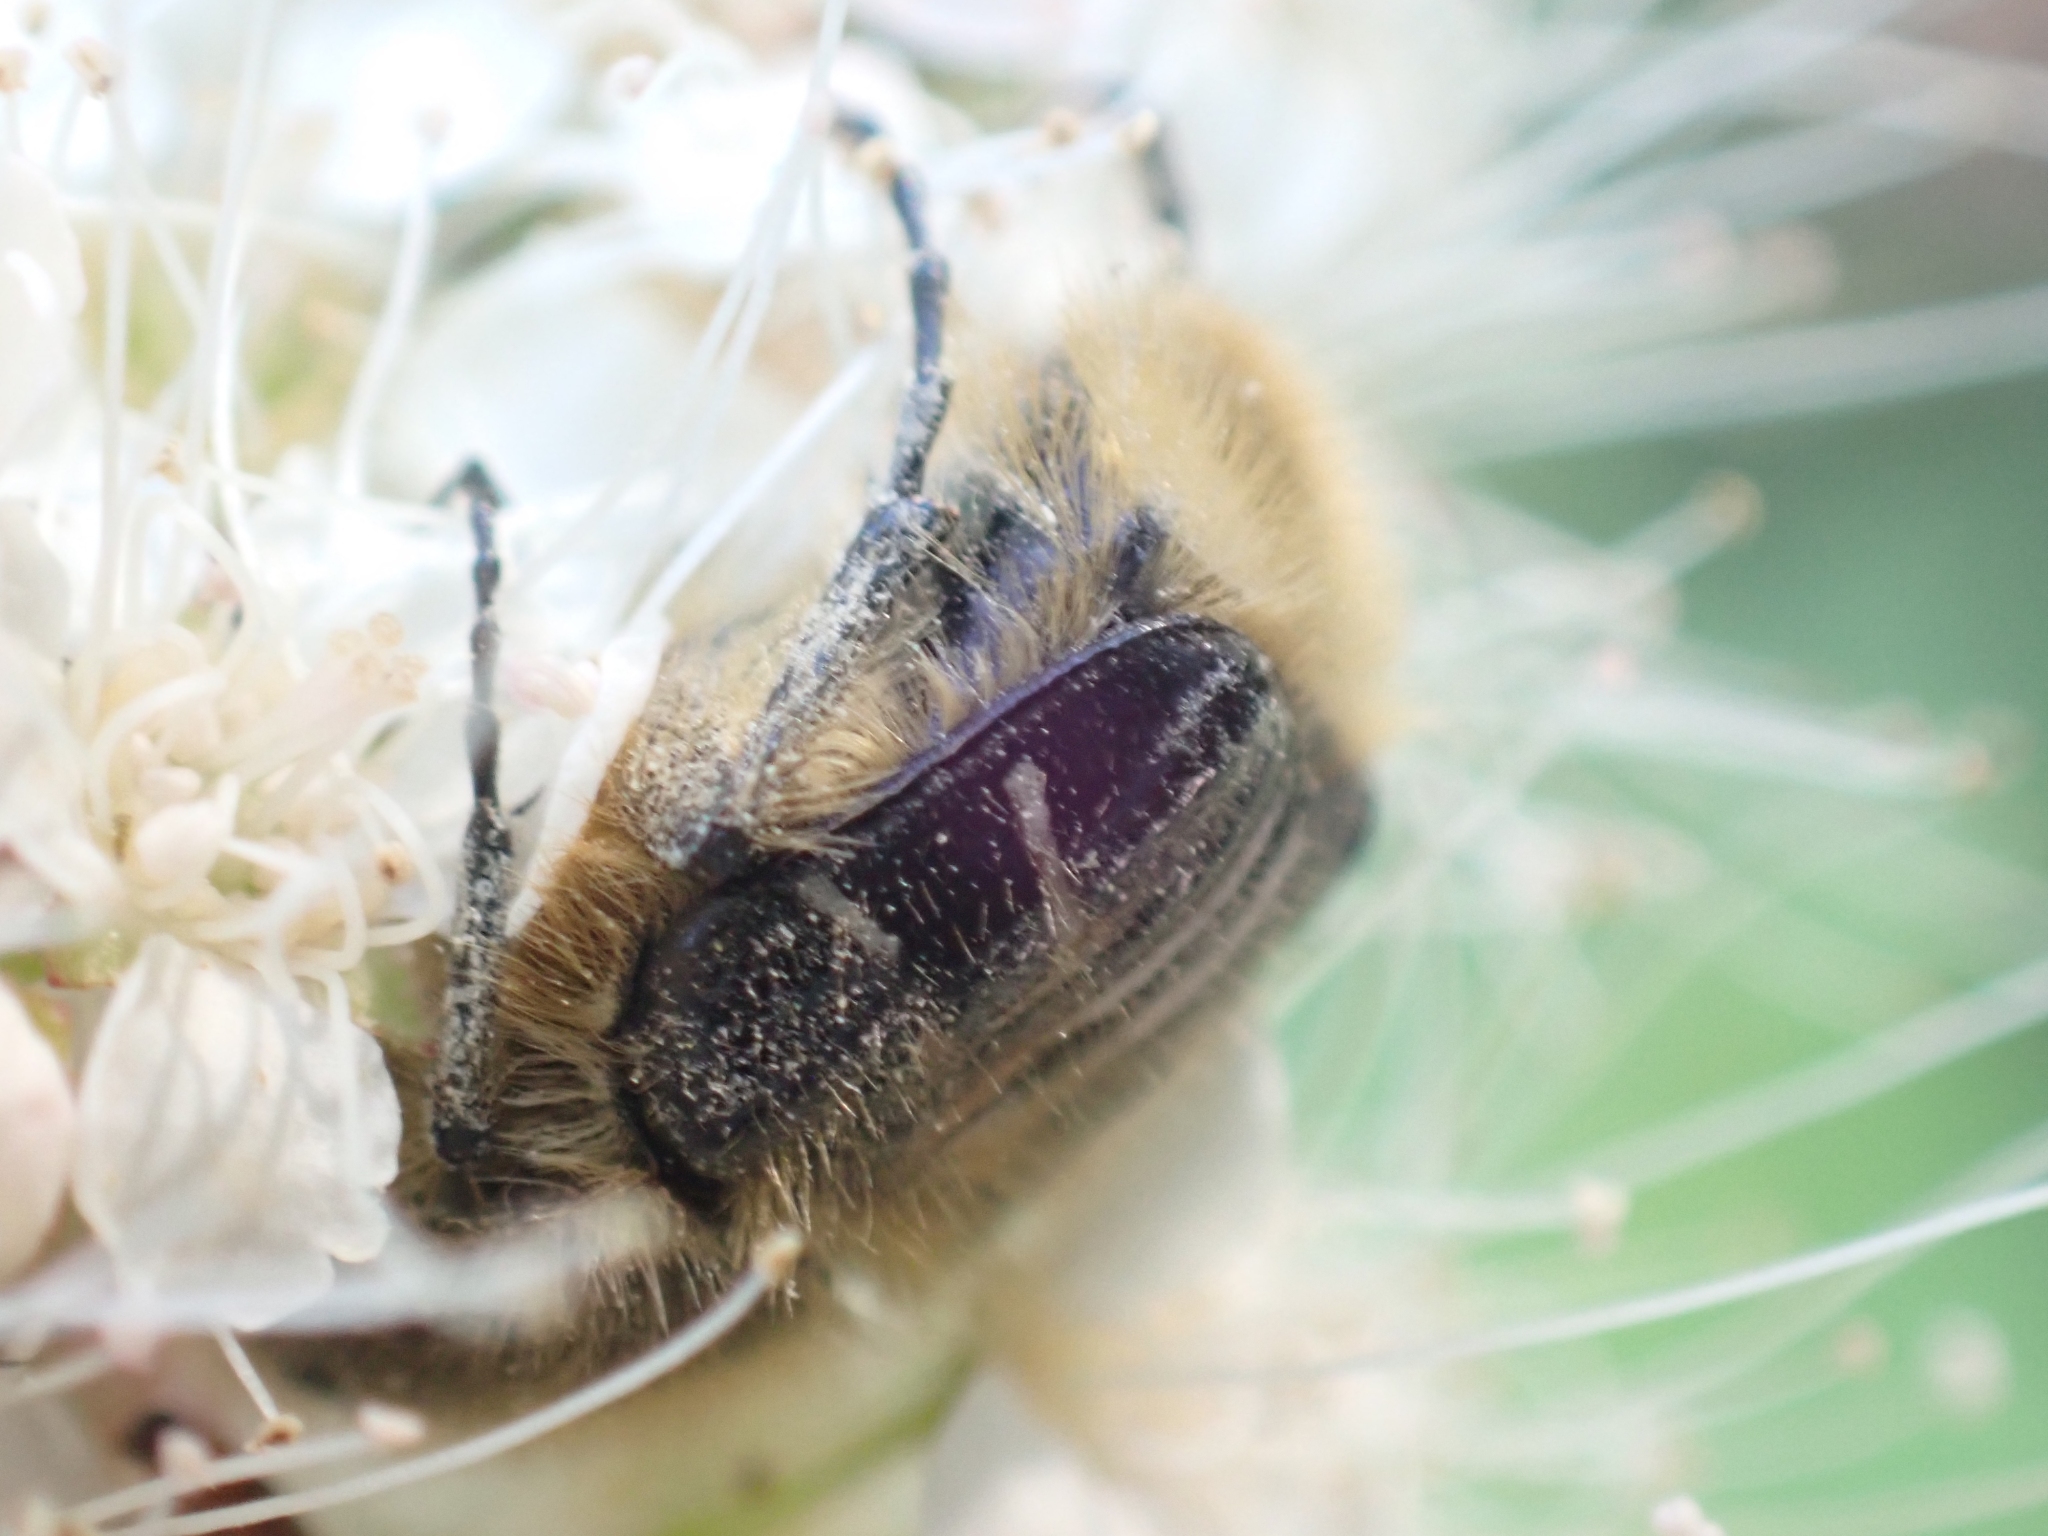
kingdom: Animalia
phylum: Arthropoda
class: Insecta
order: Coleoptera
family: Scarabaeidae
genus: Trichiotinus
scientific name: Trichiotinus assimilis
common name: Bee-mimic beetle
